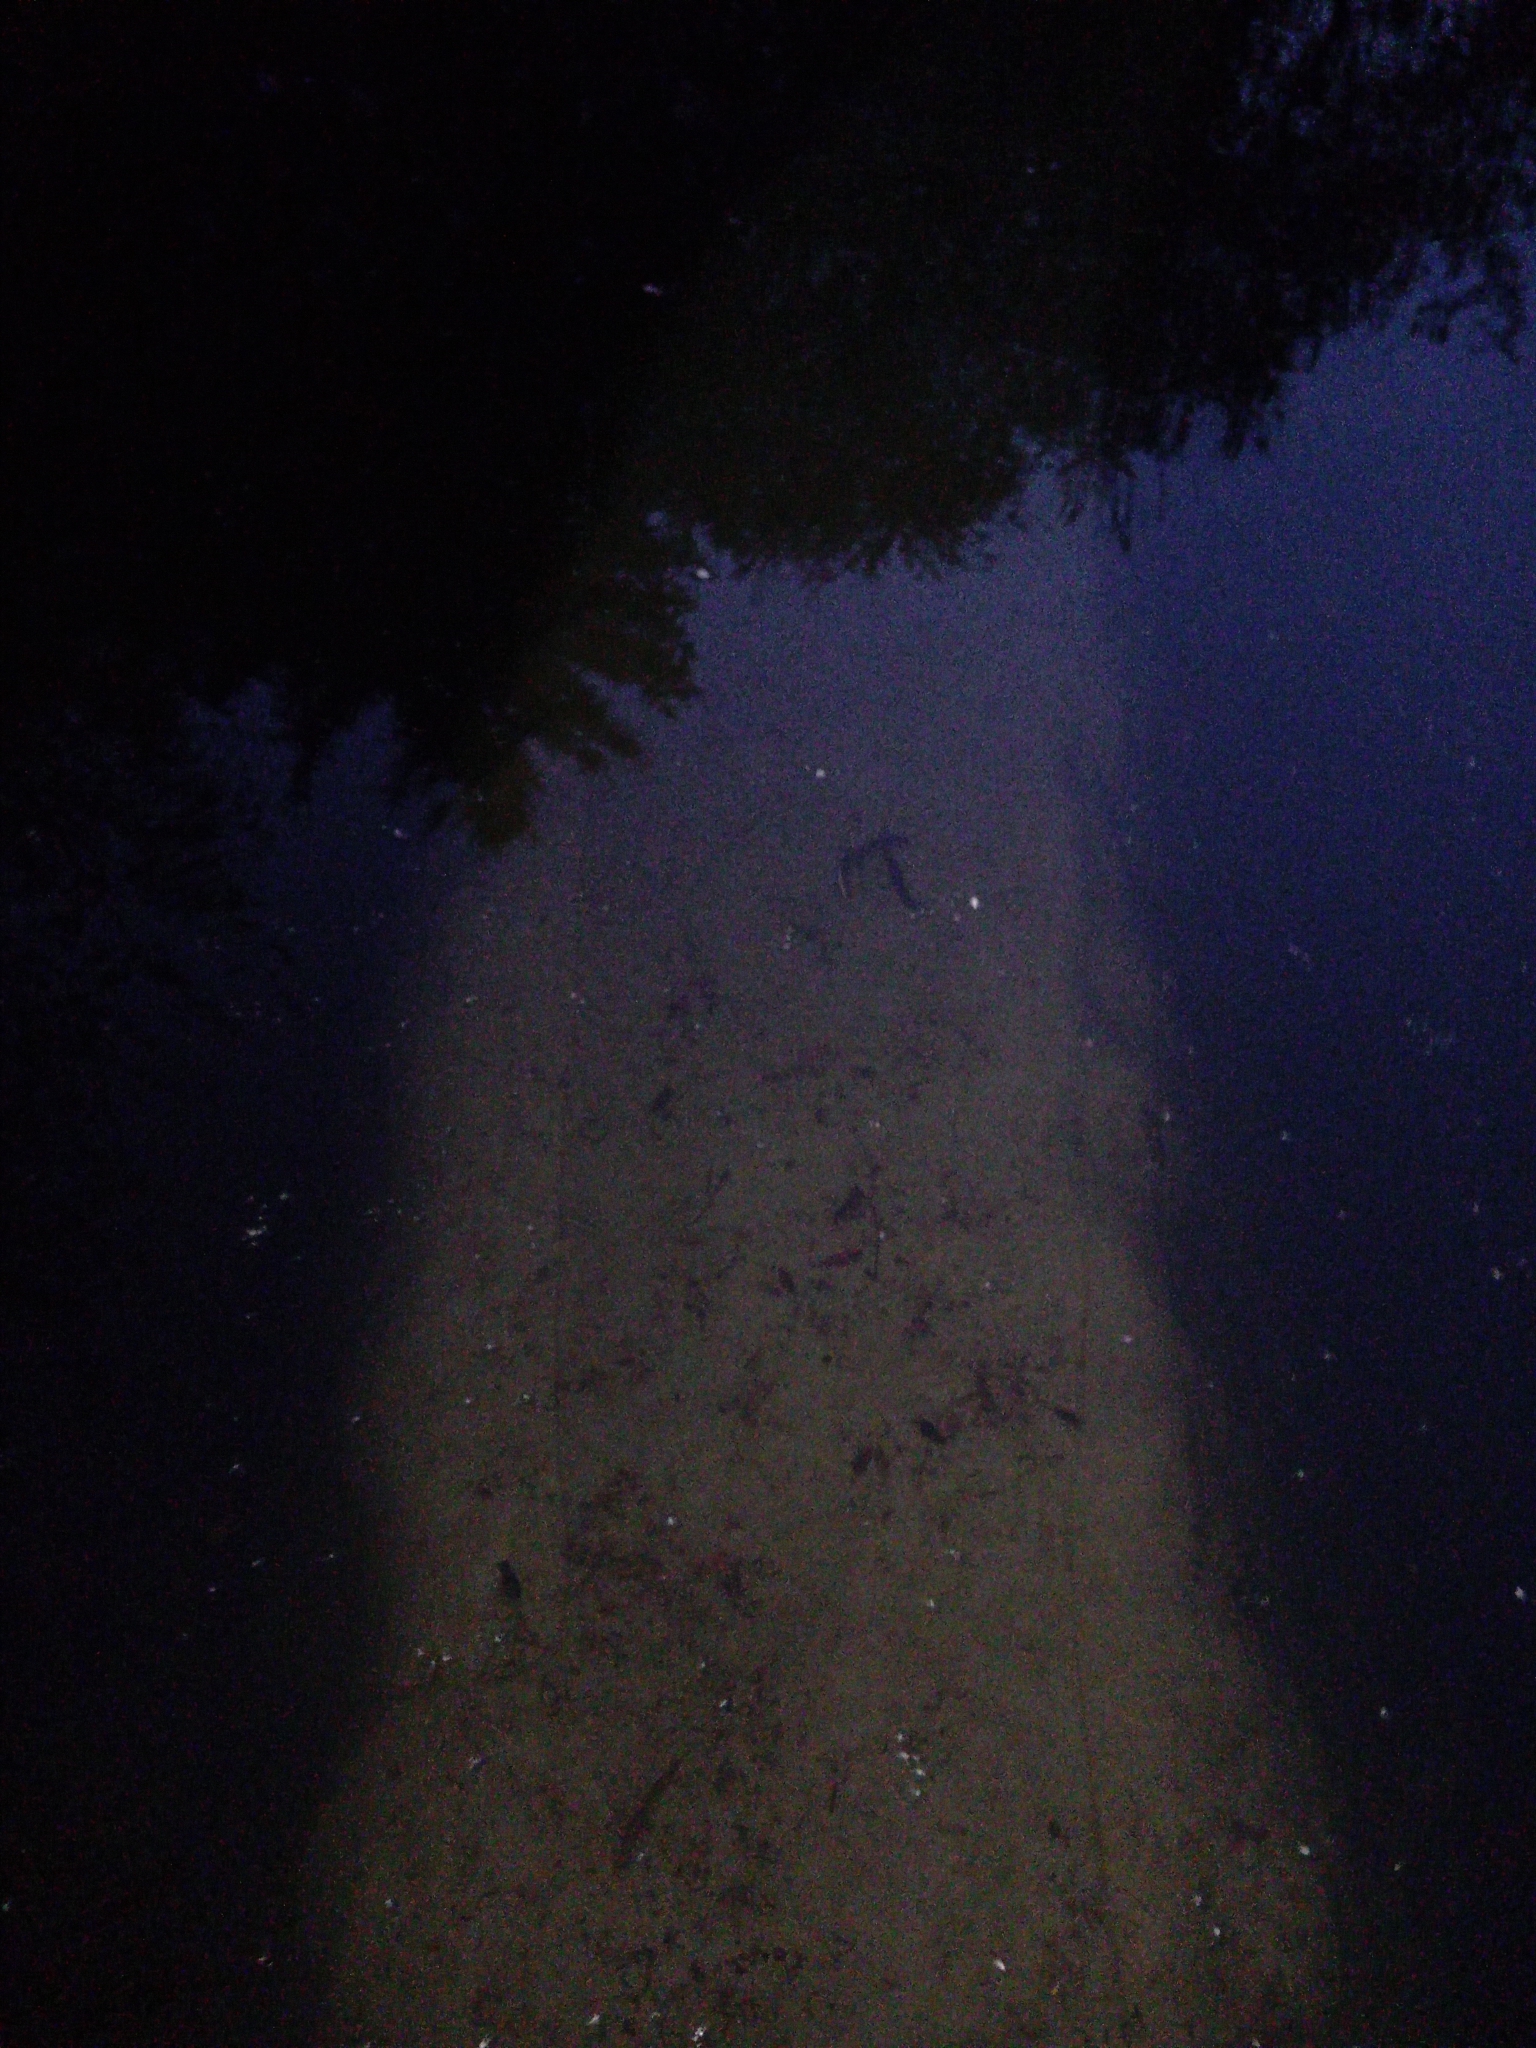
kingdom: Animalia
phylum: Chordata
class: Amphibia
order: Caudata
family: Salamandridae
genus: Lissotriton
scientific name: Lissotriton vulgaris
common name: Smooth newt
